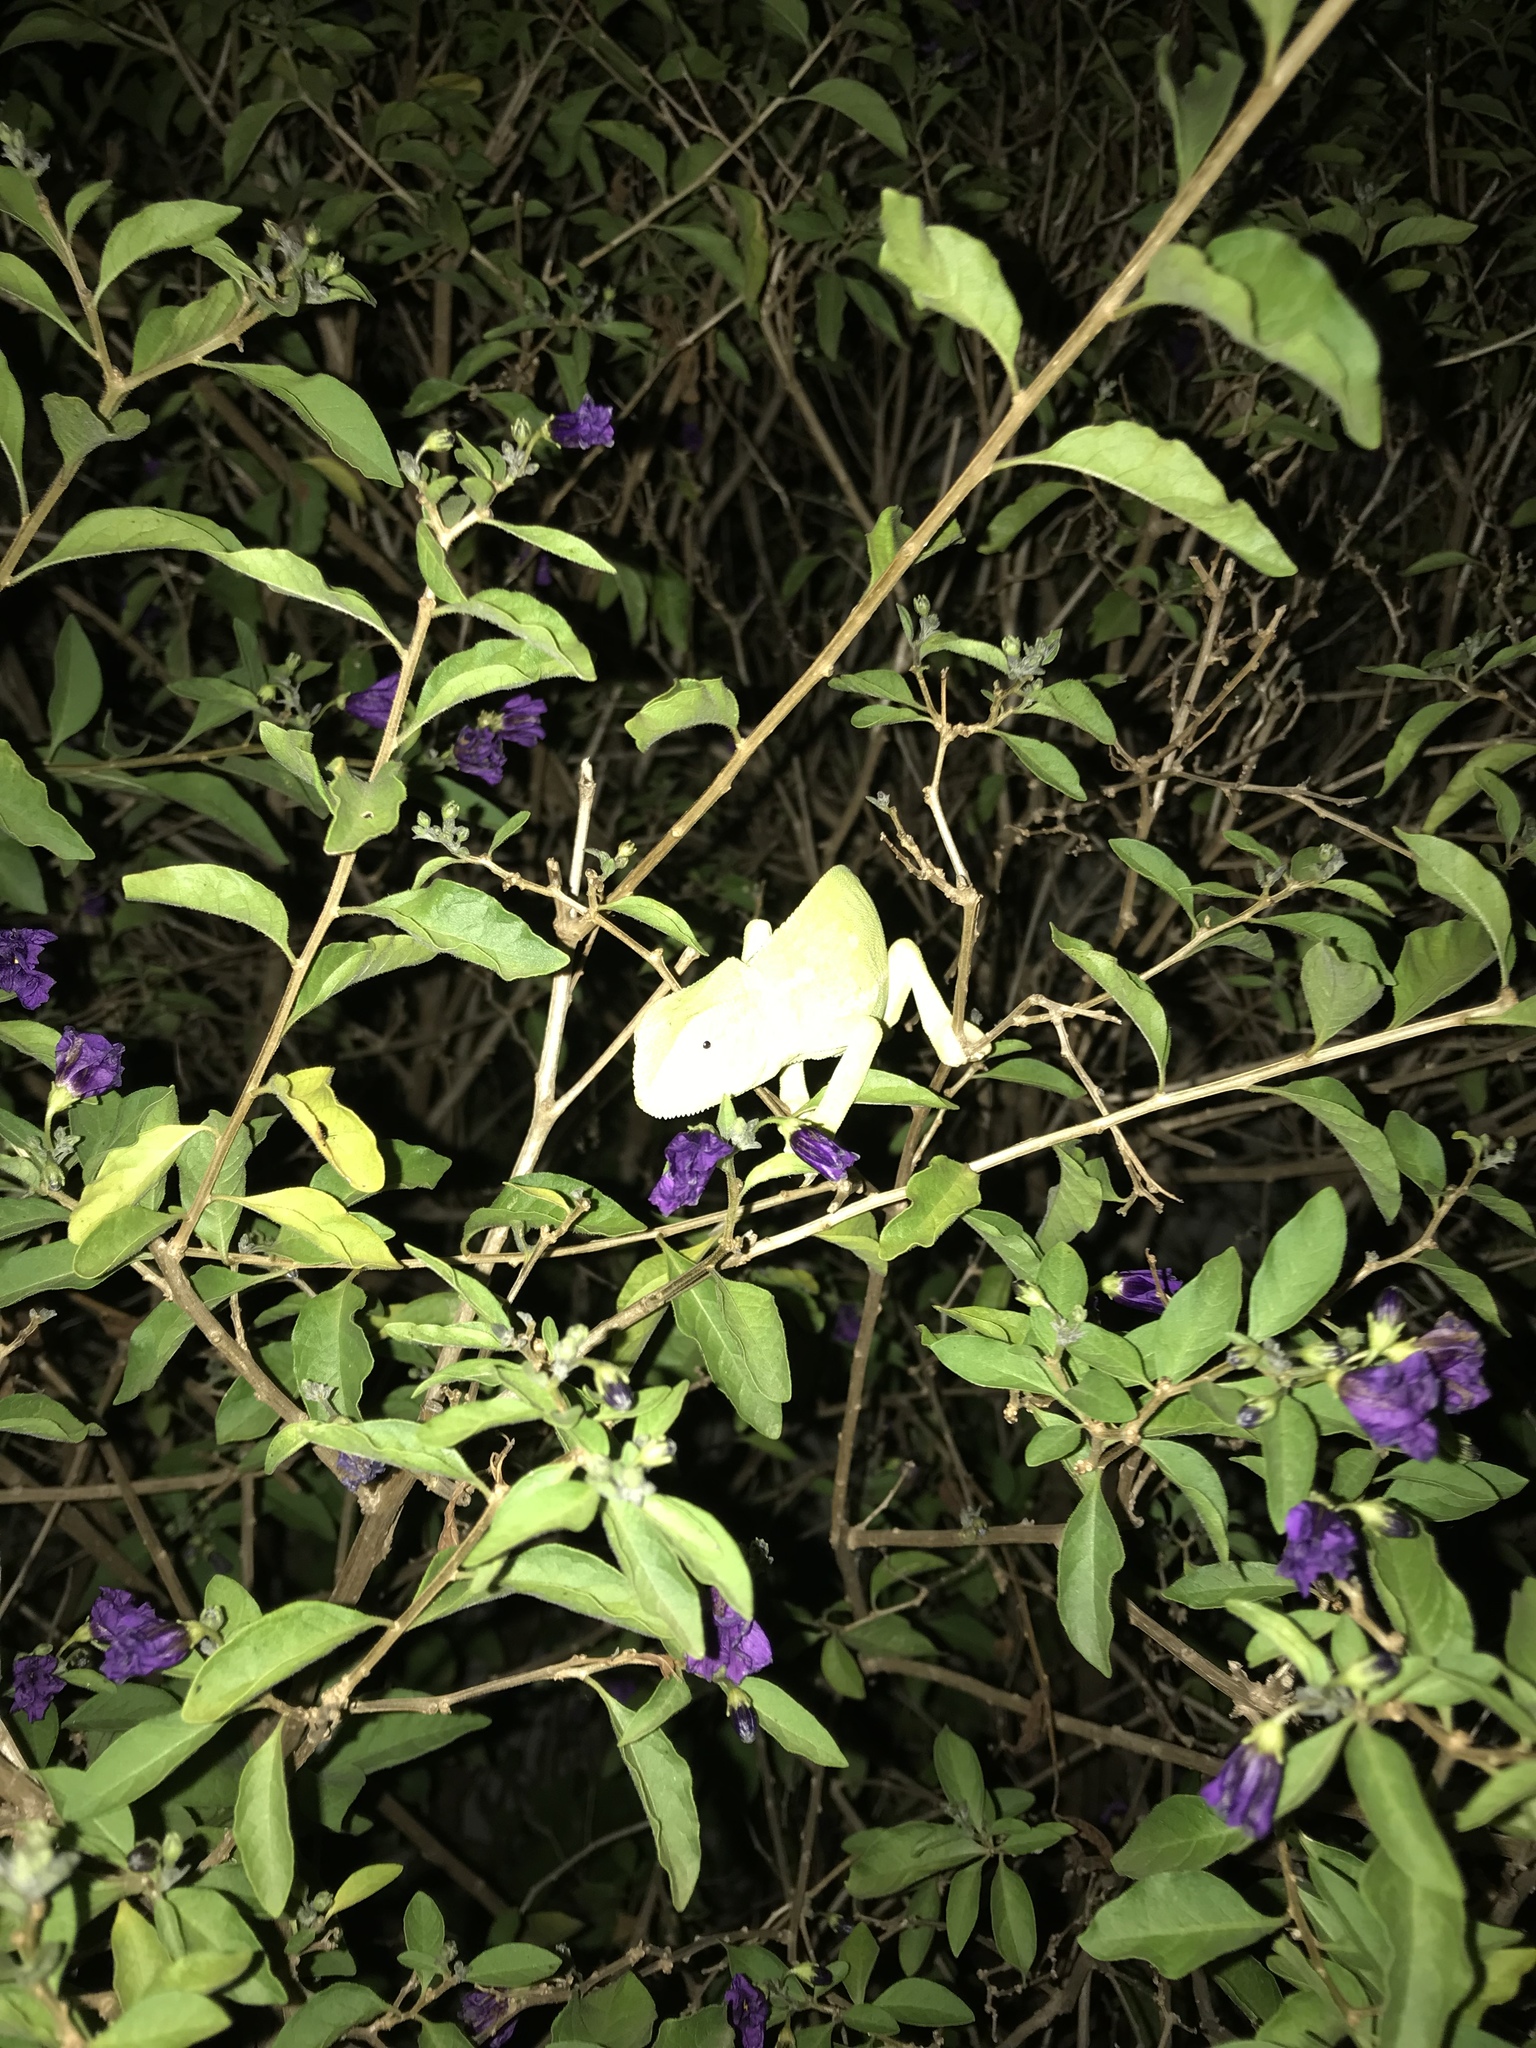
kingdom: Animalia
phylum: Chordata
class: Squamata
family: Chamaeleonidae
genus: Chamaeleo
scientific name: Chamaeleo dilepis
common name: Flapneck chameleon
